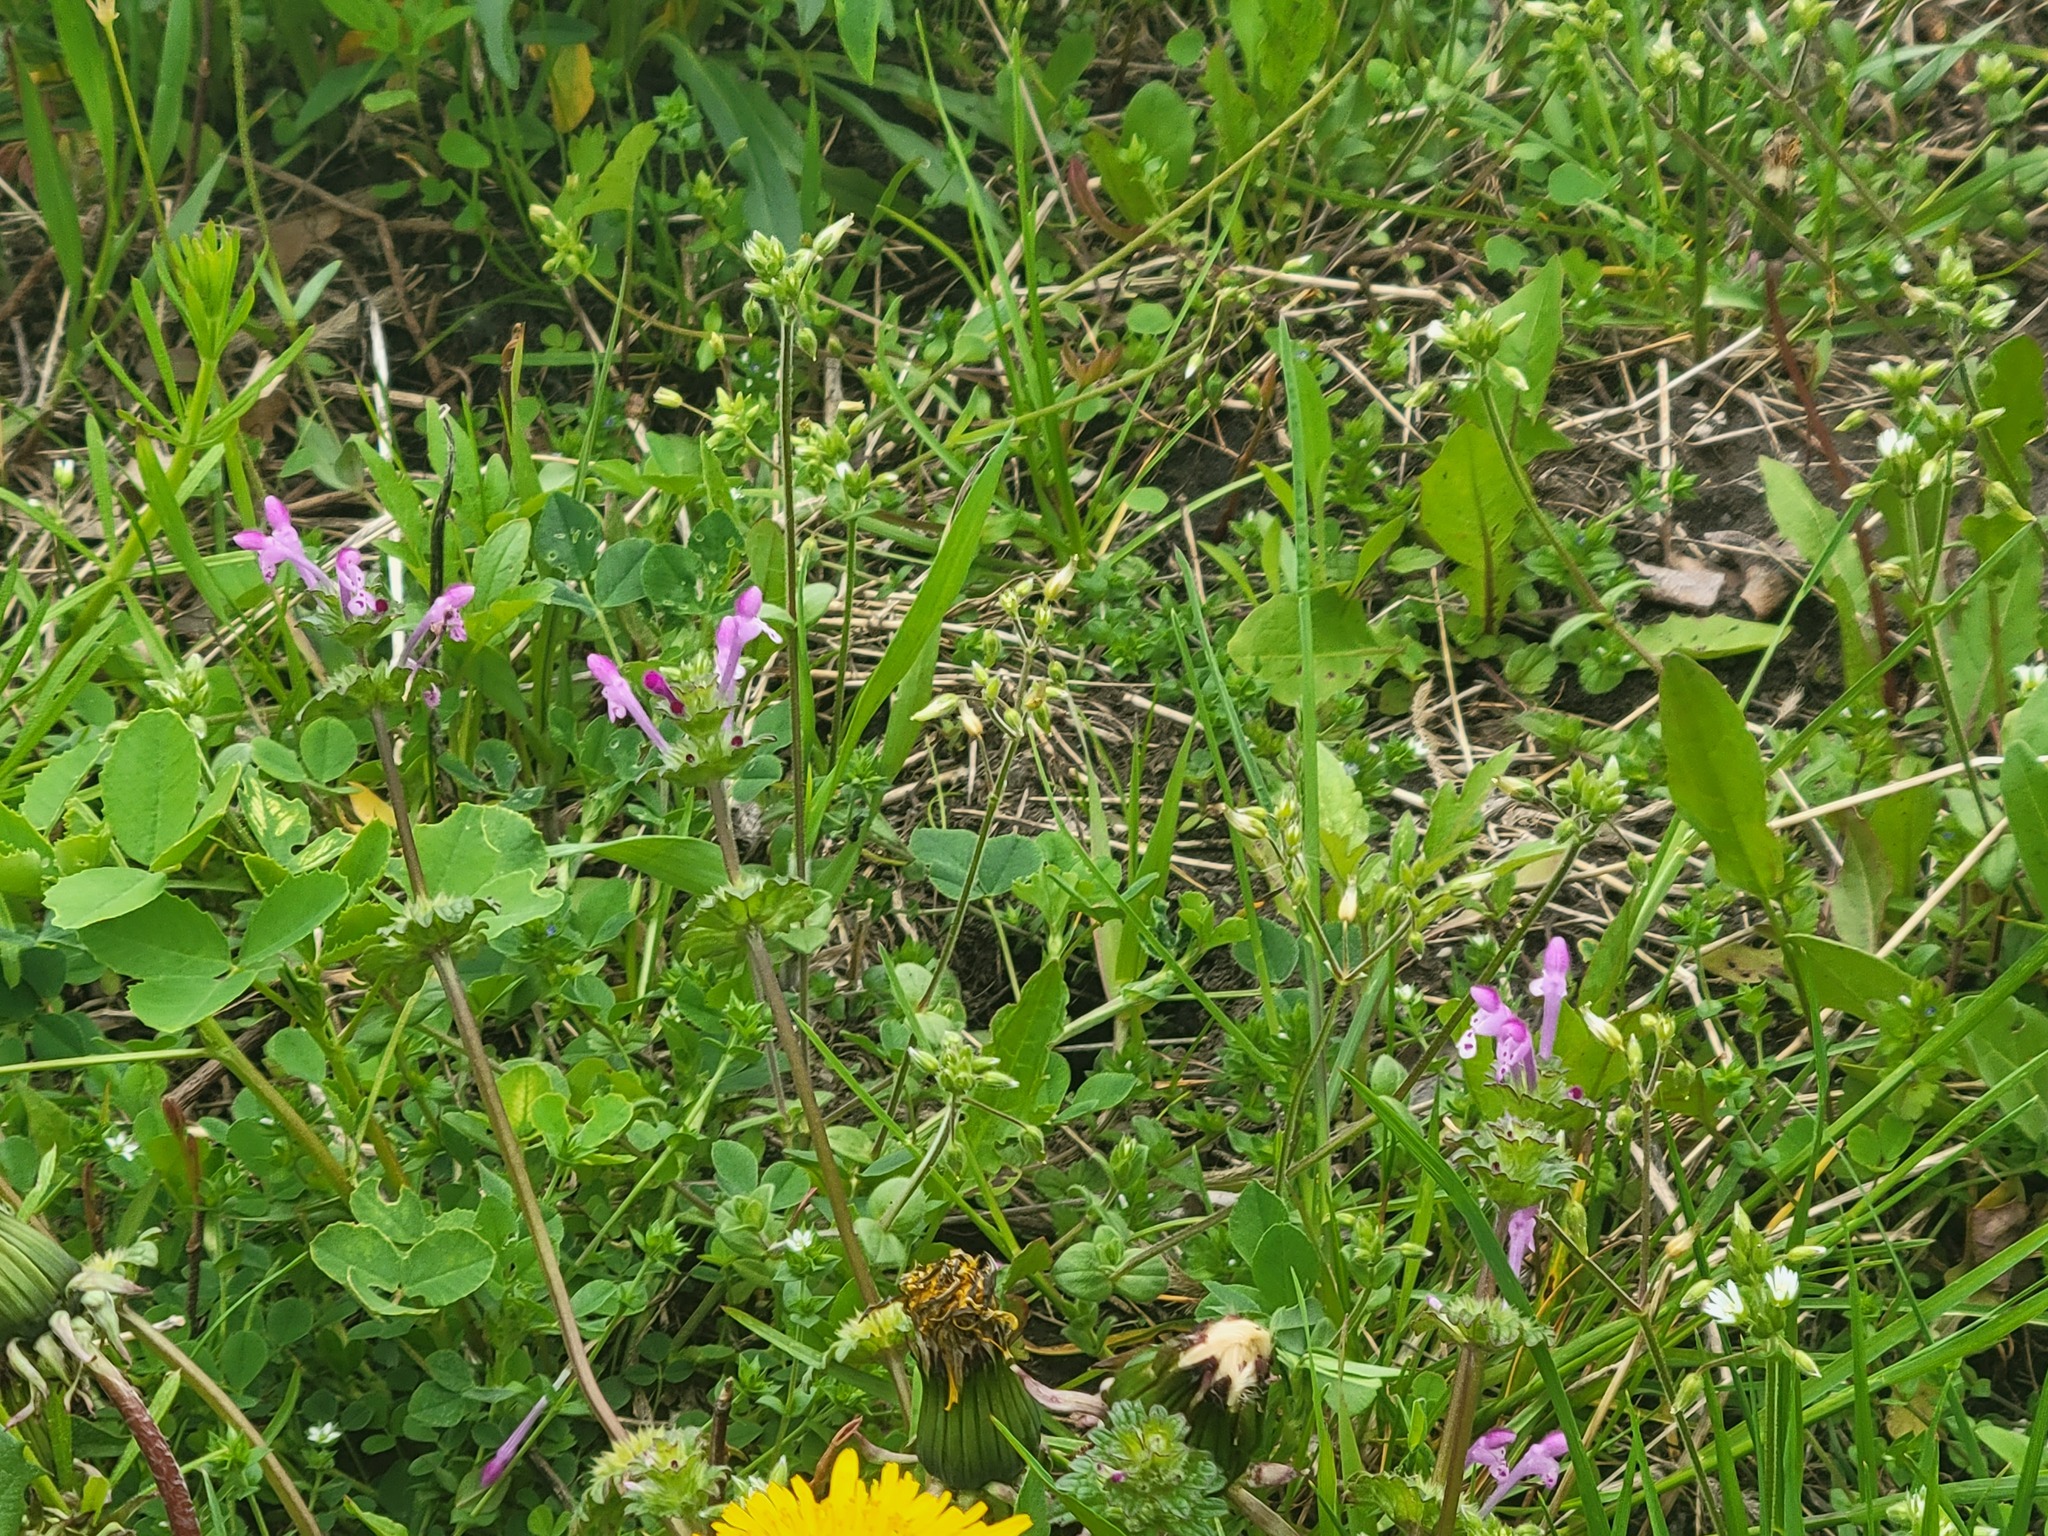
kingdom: Plantae
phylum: Tracheophyta
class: Magnoliopsida
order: Lamiales
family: Lamiaceae
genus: Lamium
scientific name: Lamium amplexicaule
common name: Henbit dead-nettle
